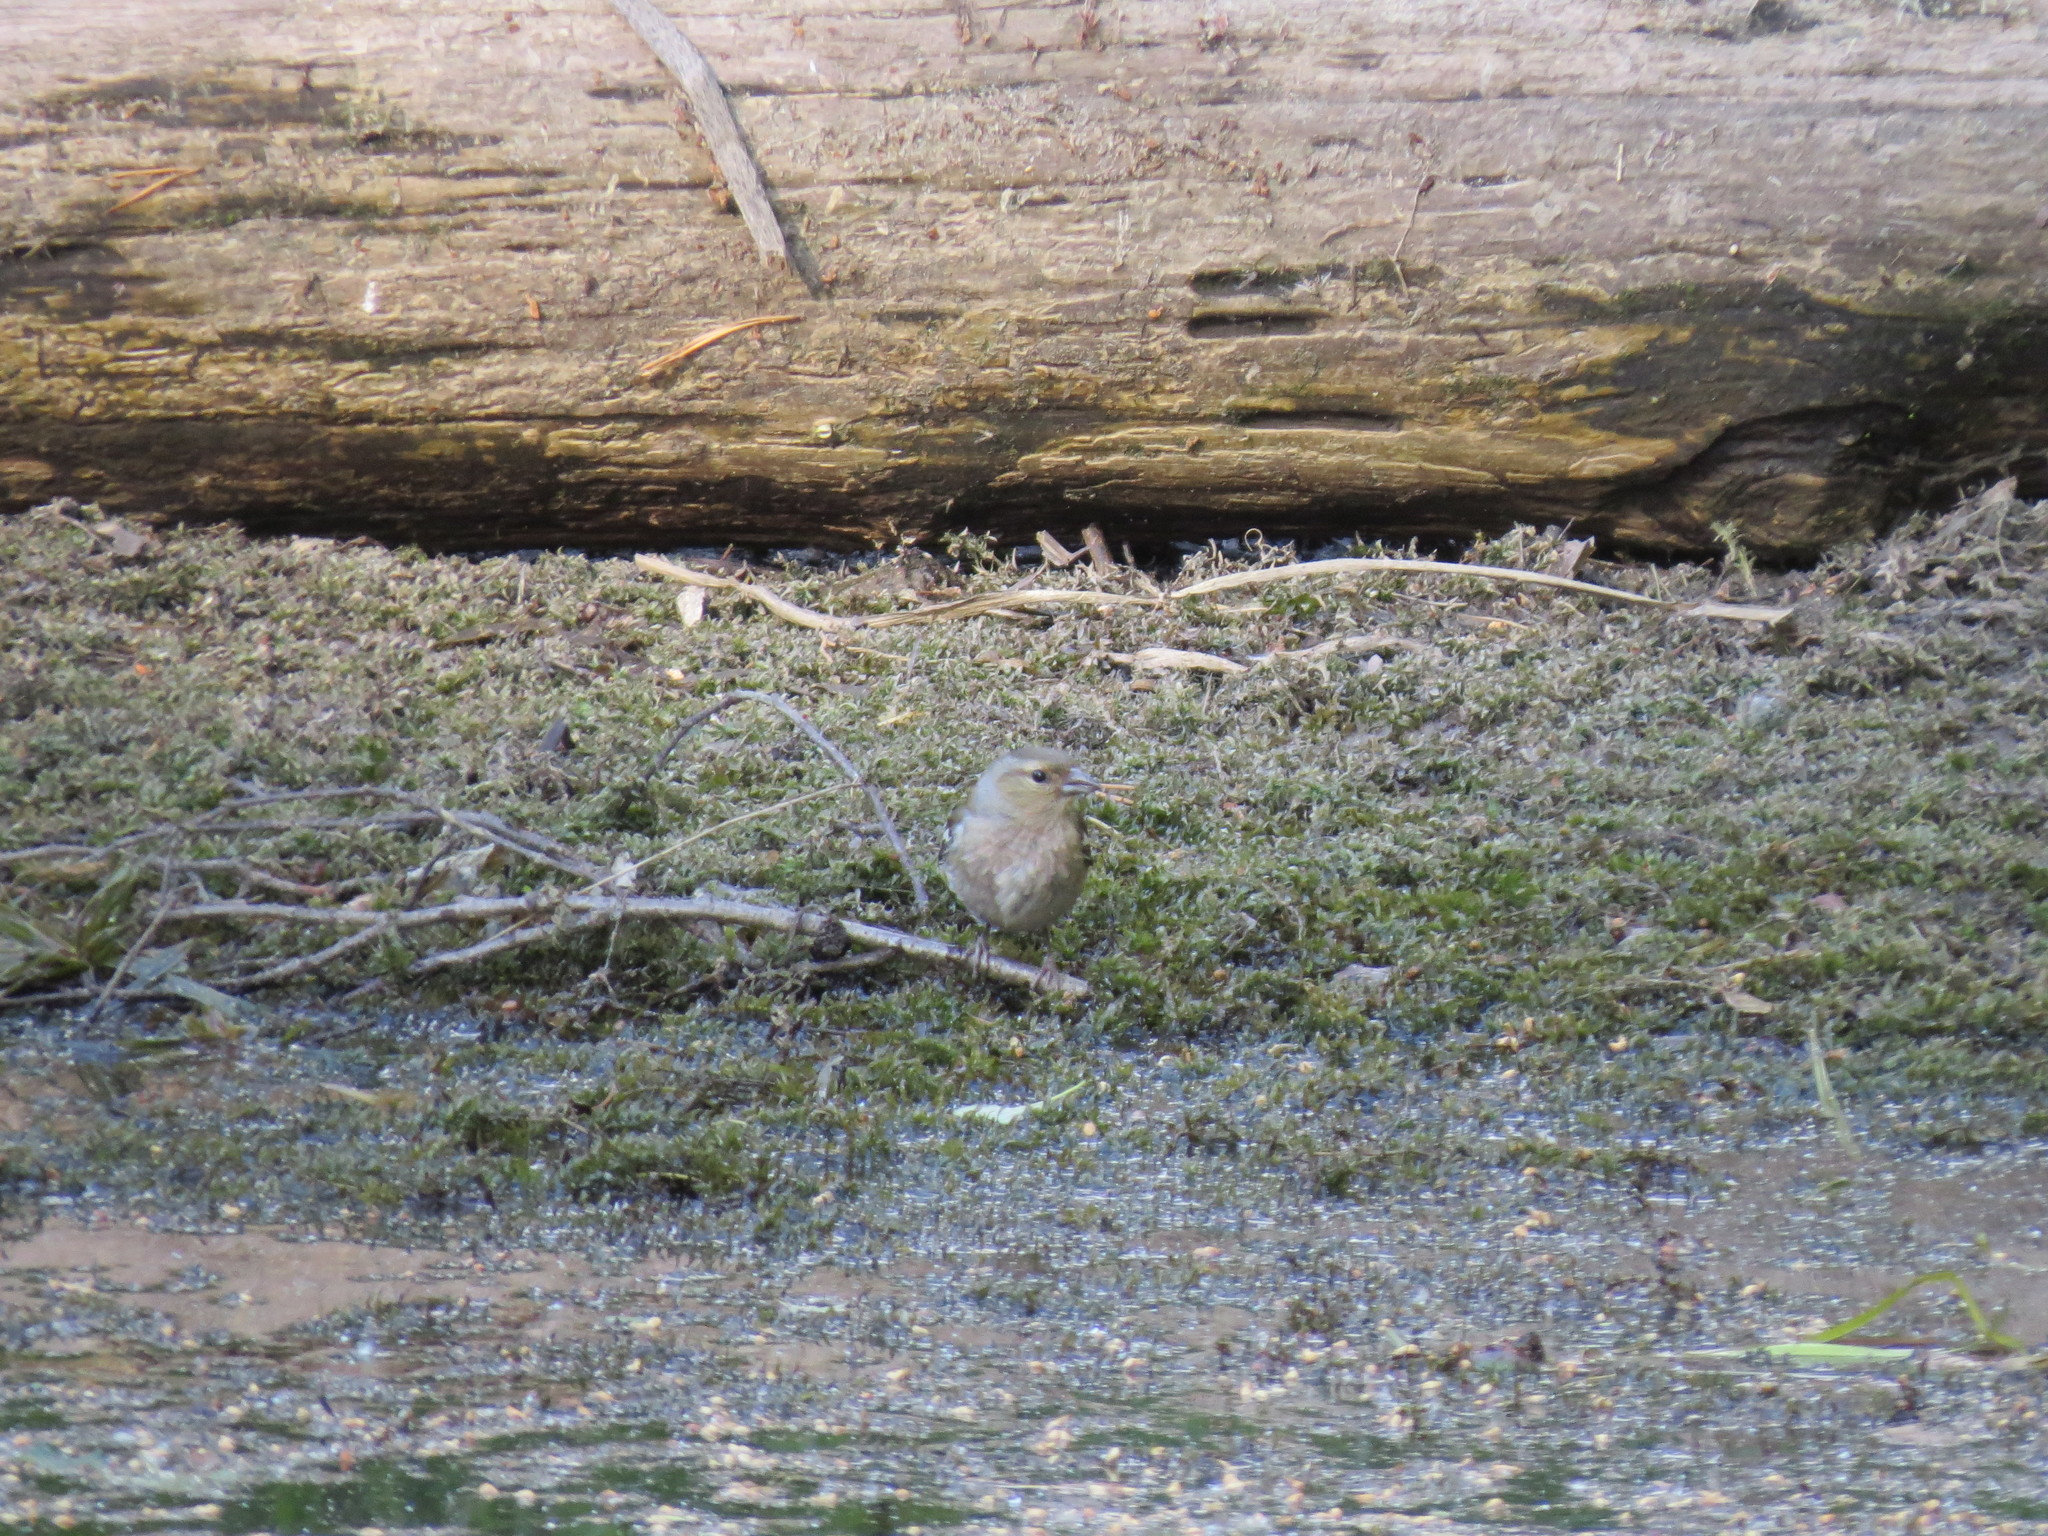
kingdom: Animalia
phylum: Chordata
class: Aves
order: Passeriformes
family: Fringillidae
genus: Fringilla
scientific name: Fringilla coelebs
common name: Common chaffinch
